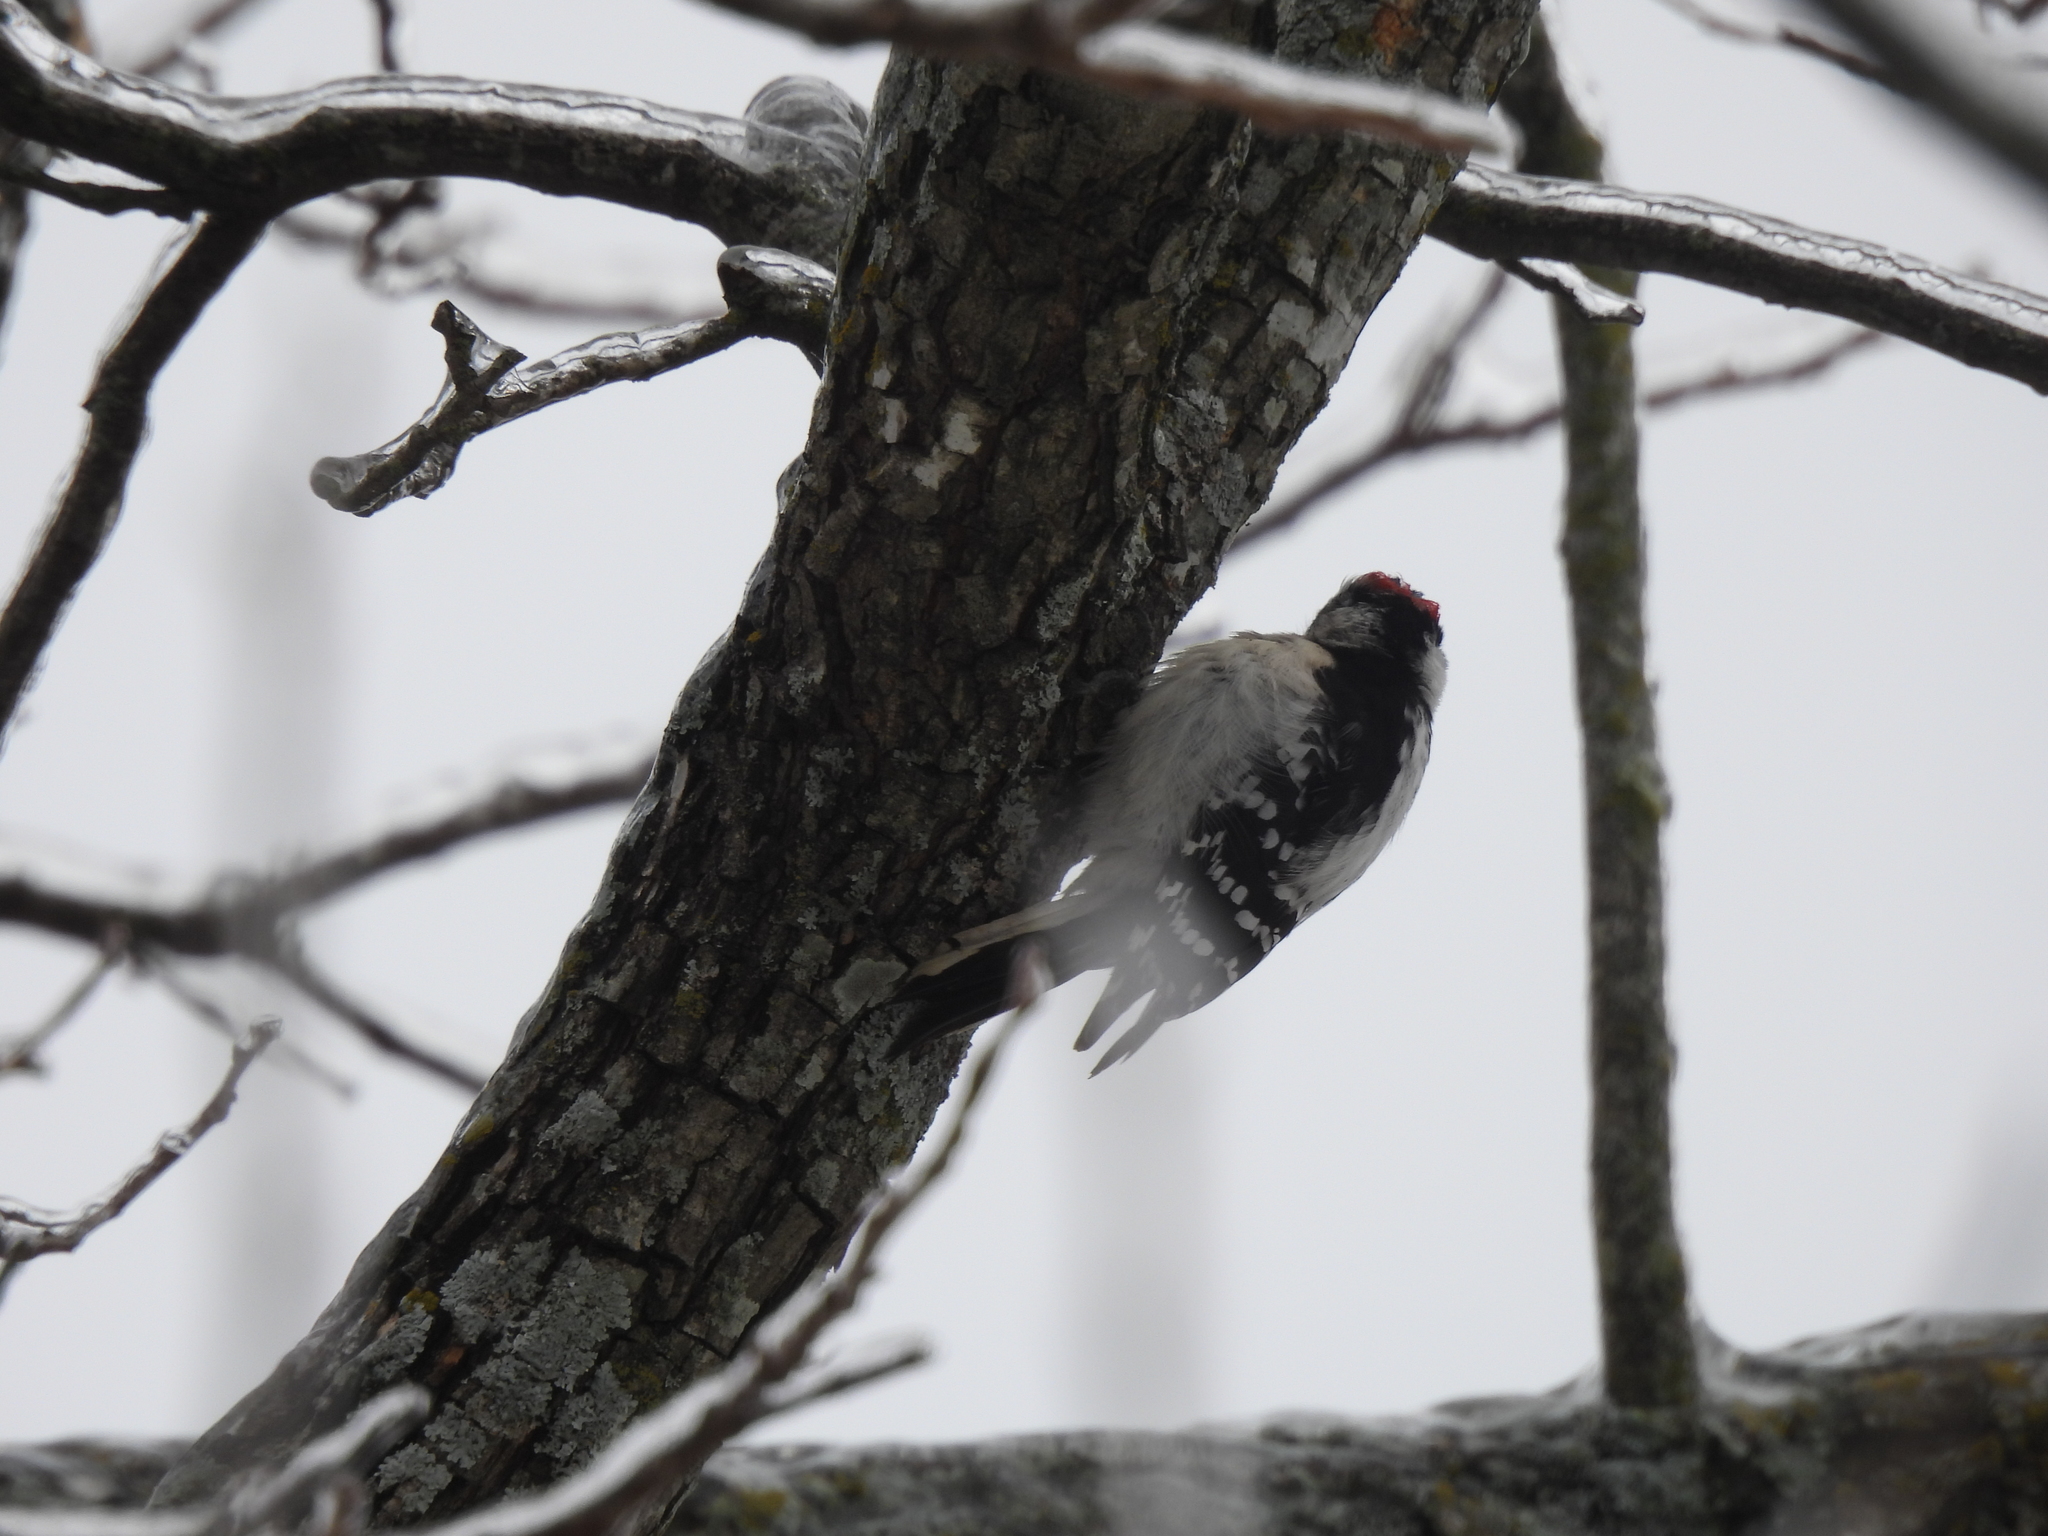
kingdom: Animalia
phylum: Chordata
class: Aves
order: Piciformes
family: Picidae
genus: Dryobates
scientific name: Dryobates pubescens
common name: Downy woodpecker
